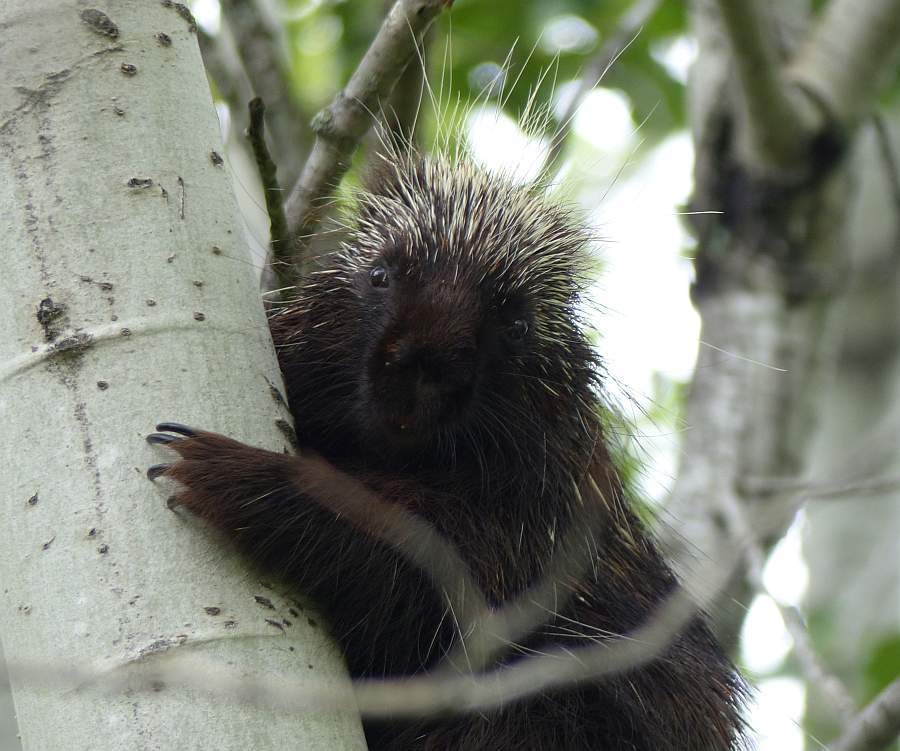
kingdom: Animalia
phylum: Chordata
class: Mammalia
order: Rodentia
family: Erethizontidae
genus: Erethizon
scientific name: Erethizon dorsatus
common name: North american porcupine
